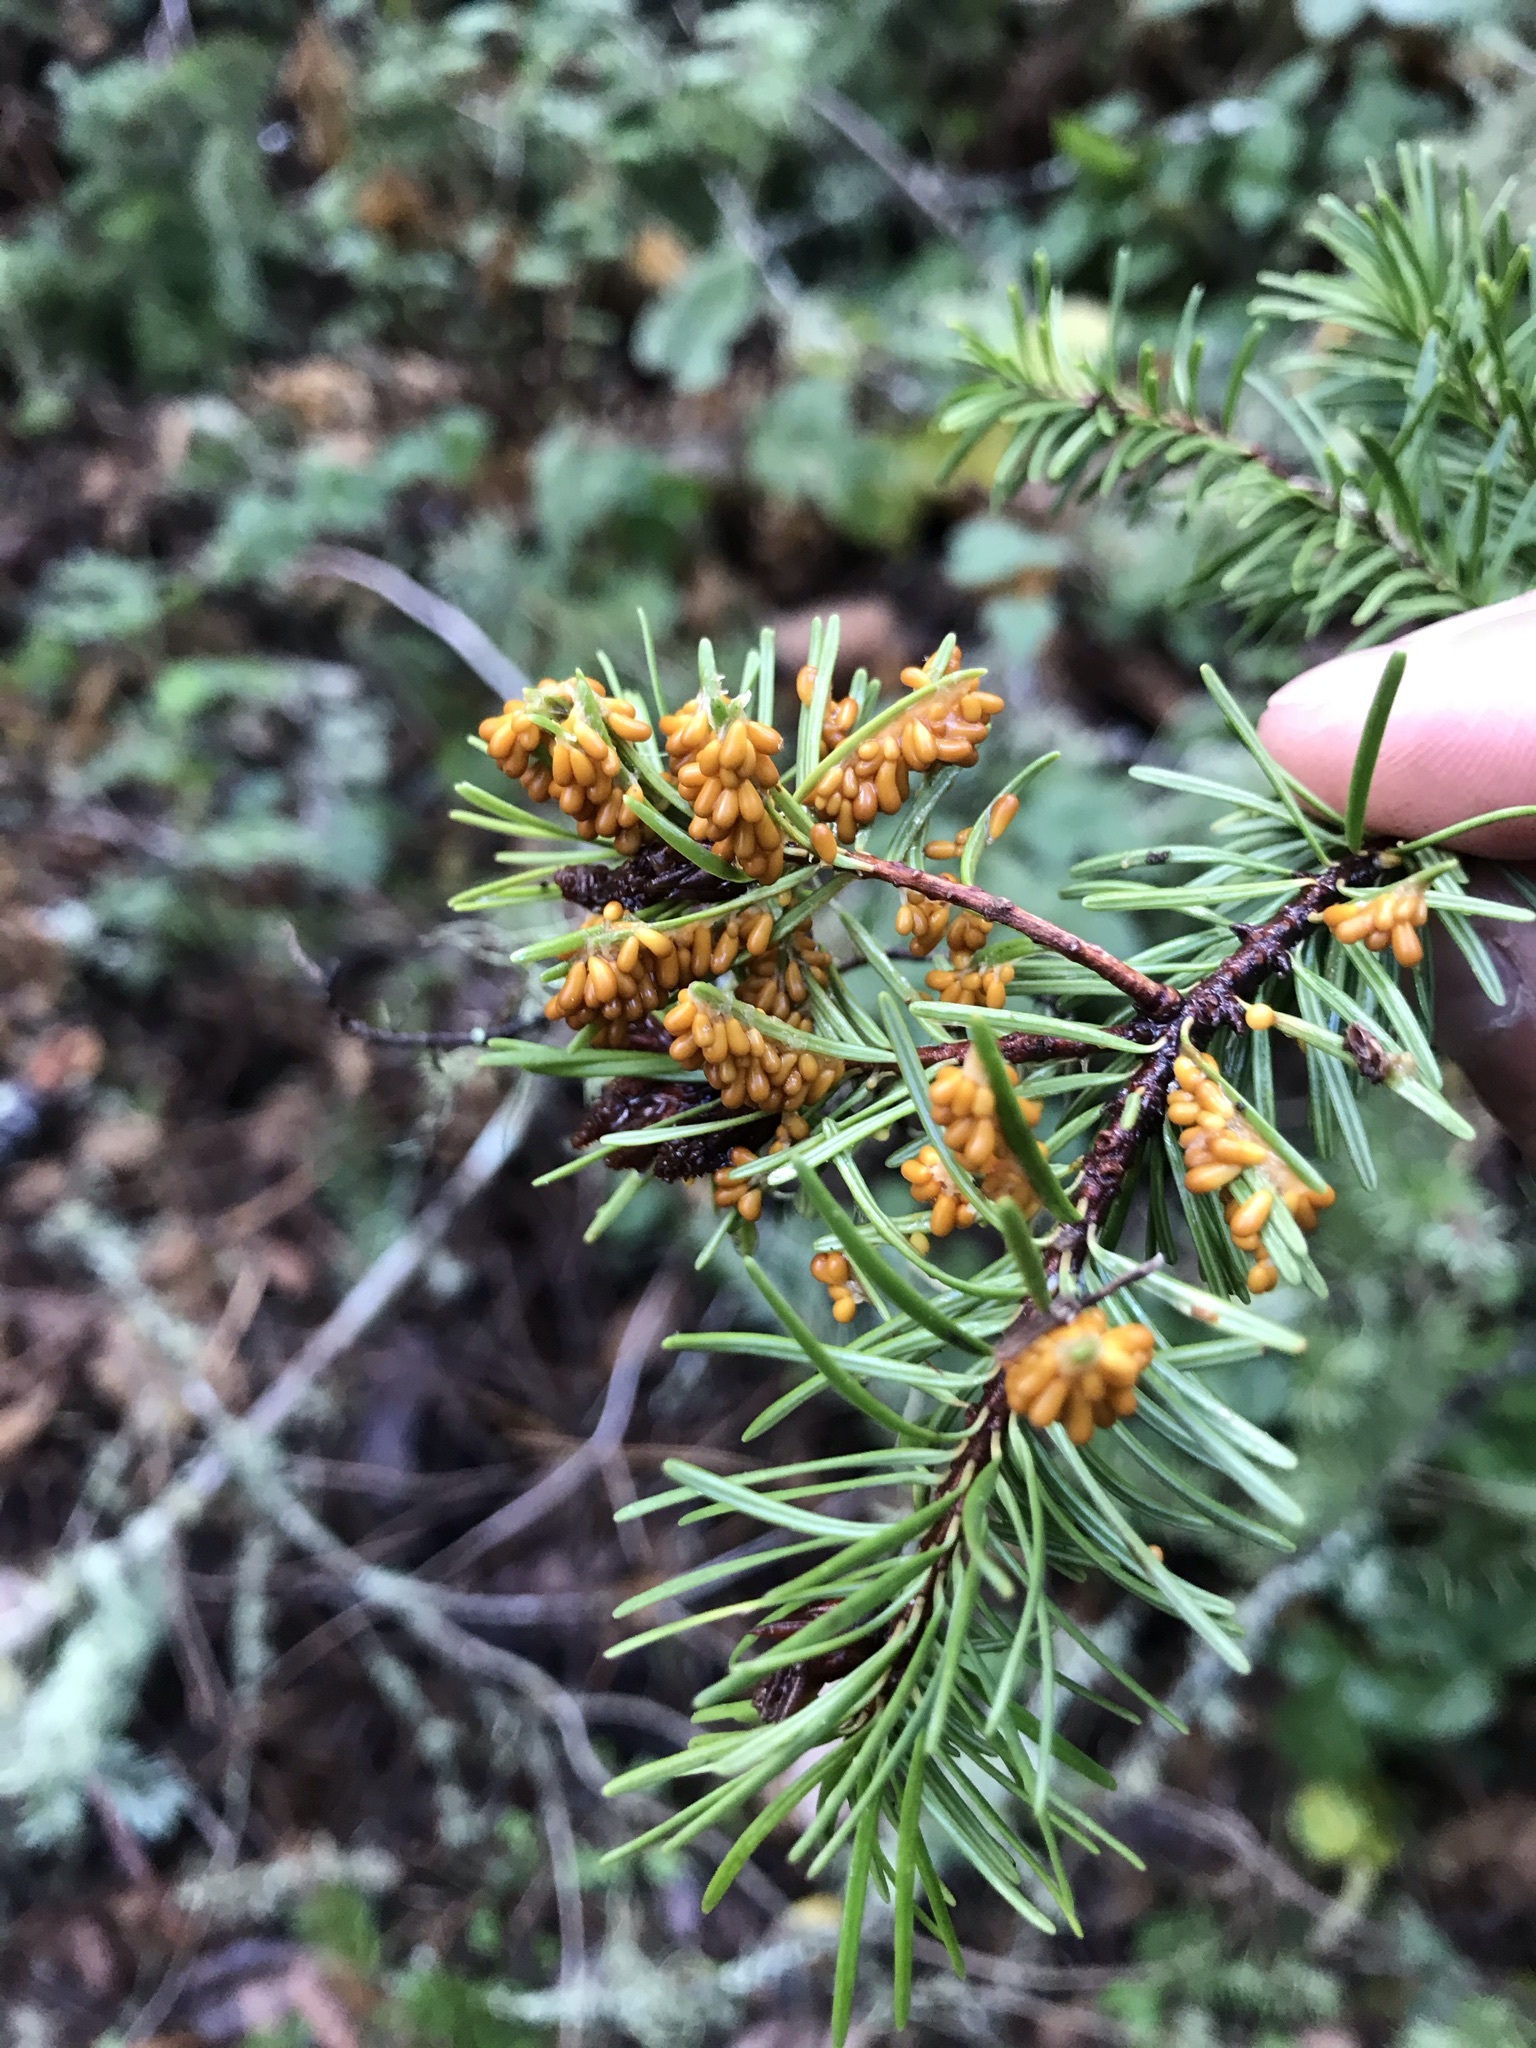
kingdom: Protozoa
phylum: Mycetozoa
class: Myxomycetes
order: Physarales
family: Physaraceae
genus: Leocarpus
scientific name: Leocarpus fragilis
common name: Insect-egg slime
